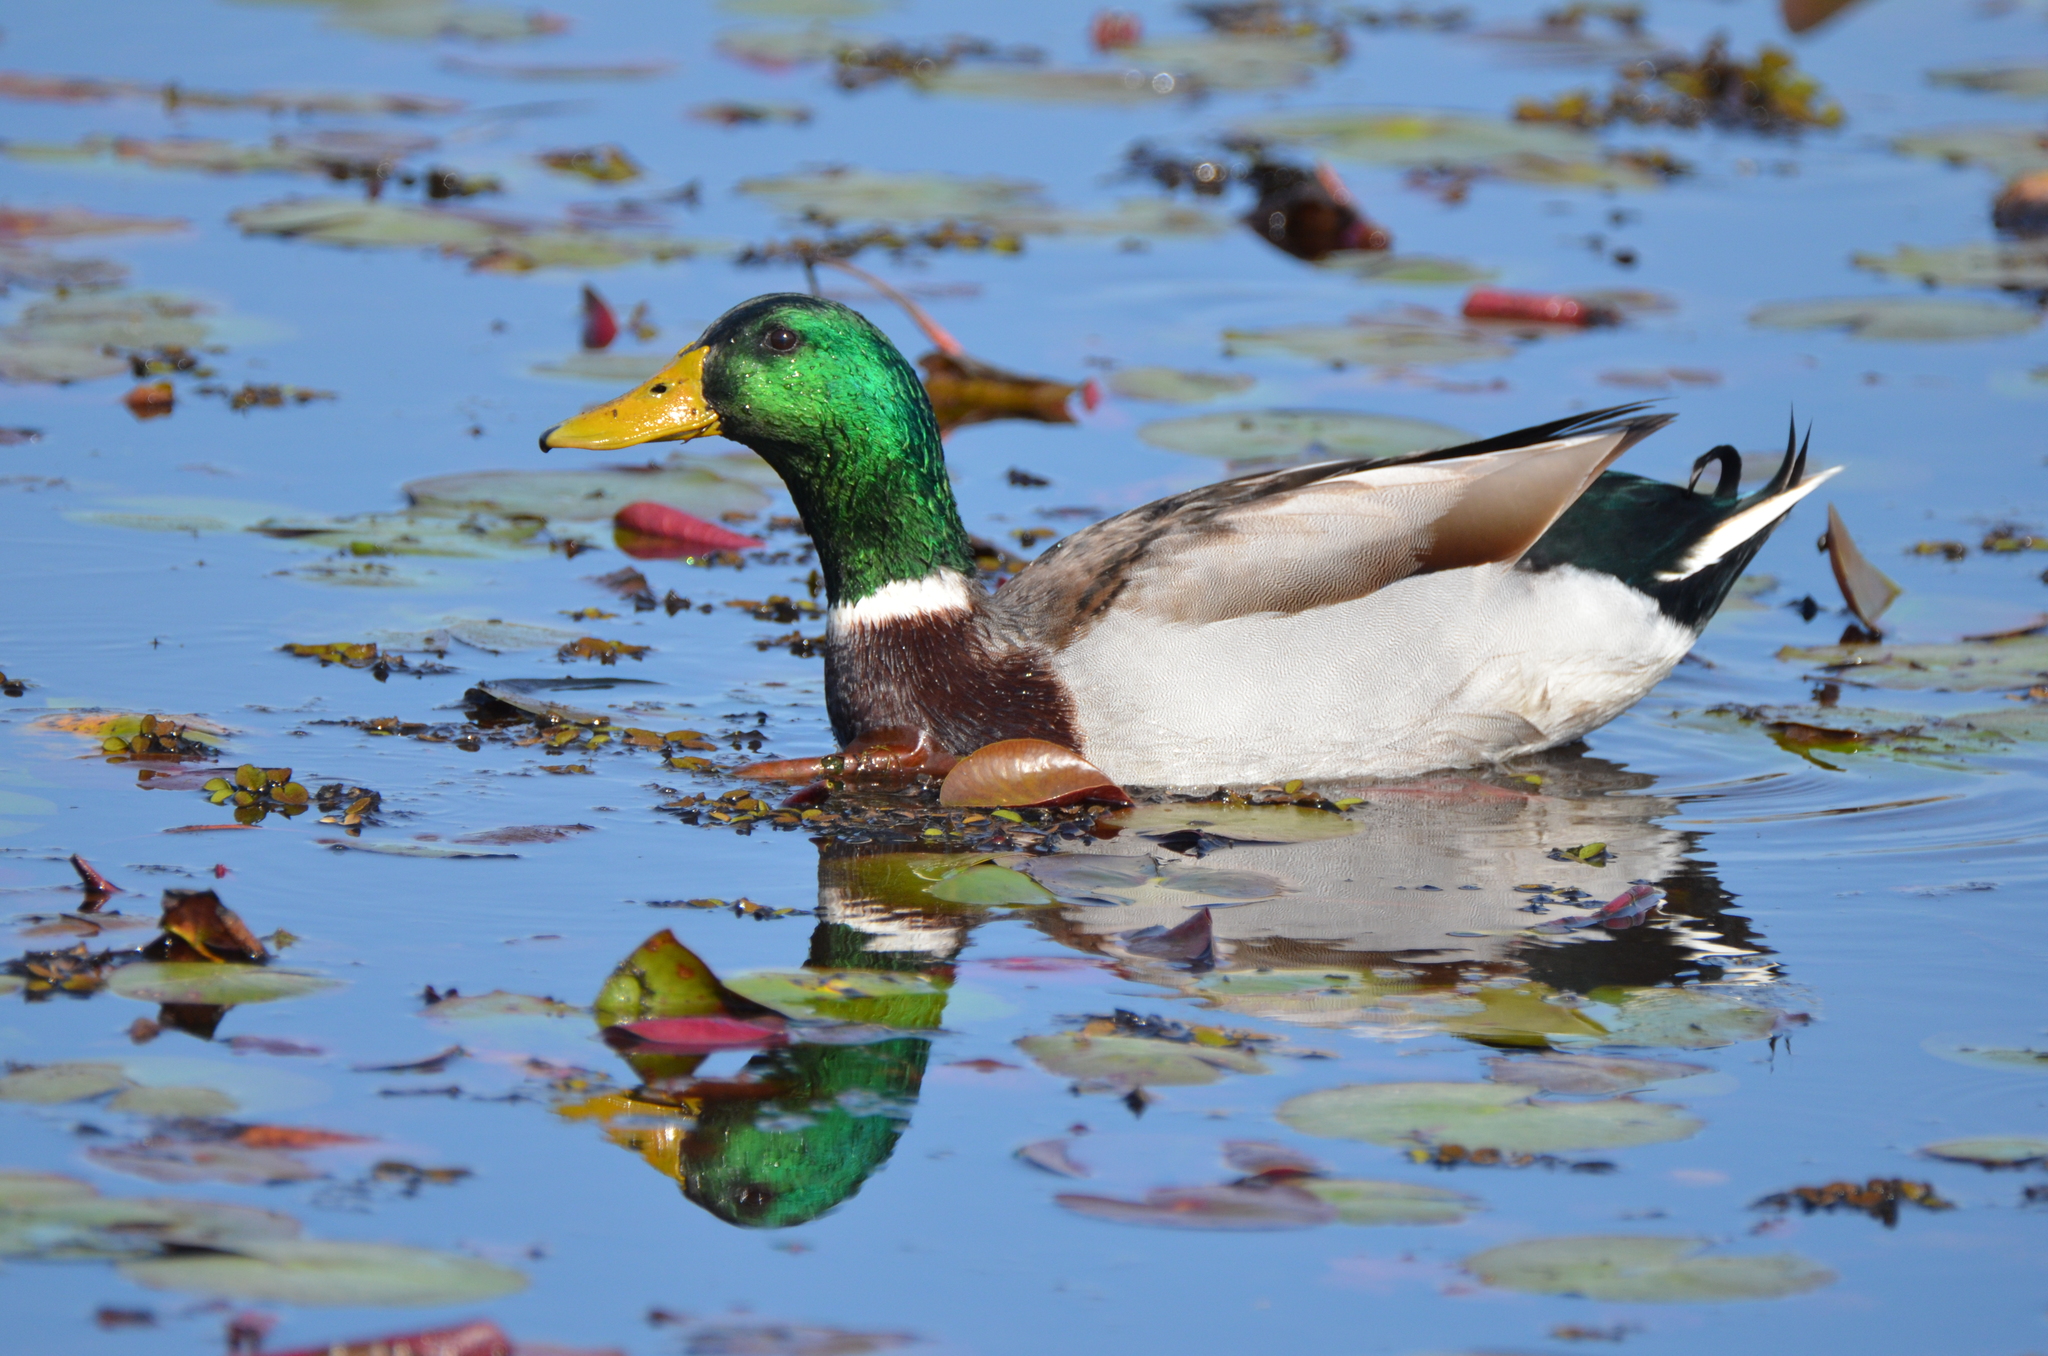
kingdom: Animalia
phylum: Chordata
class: Aves
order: Anseriformes
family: Anatidae
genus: Anas
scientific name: Anas platyrhynchos
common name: Mallard
